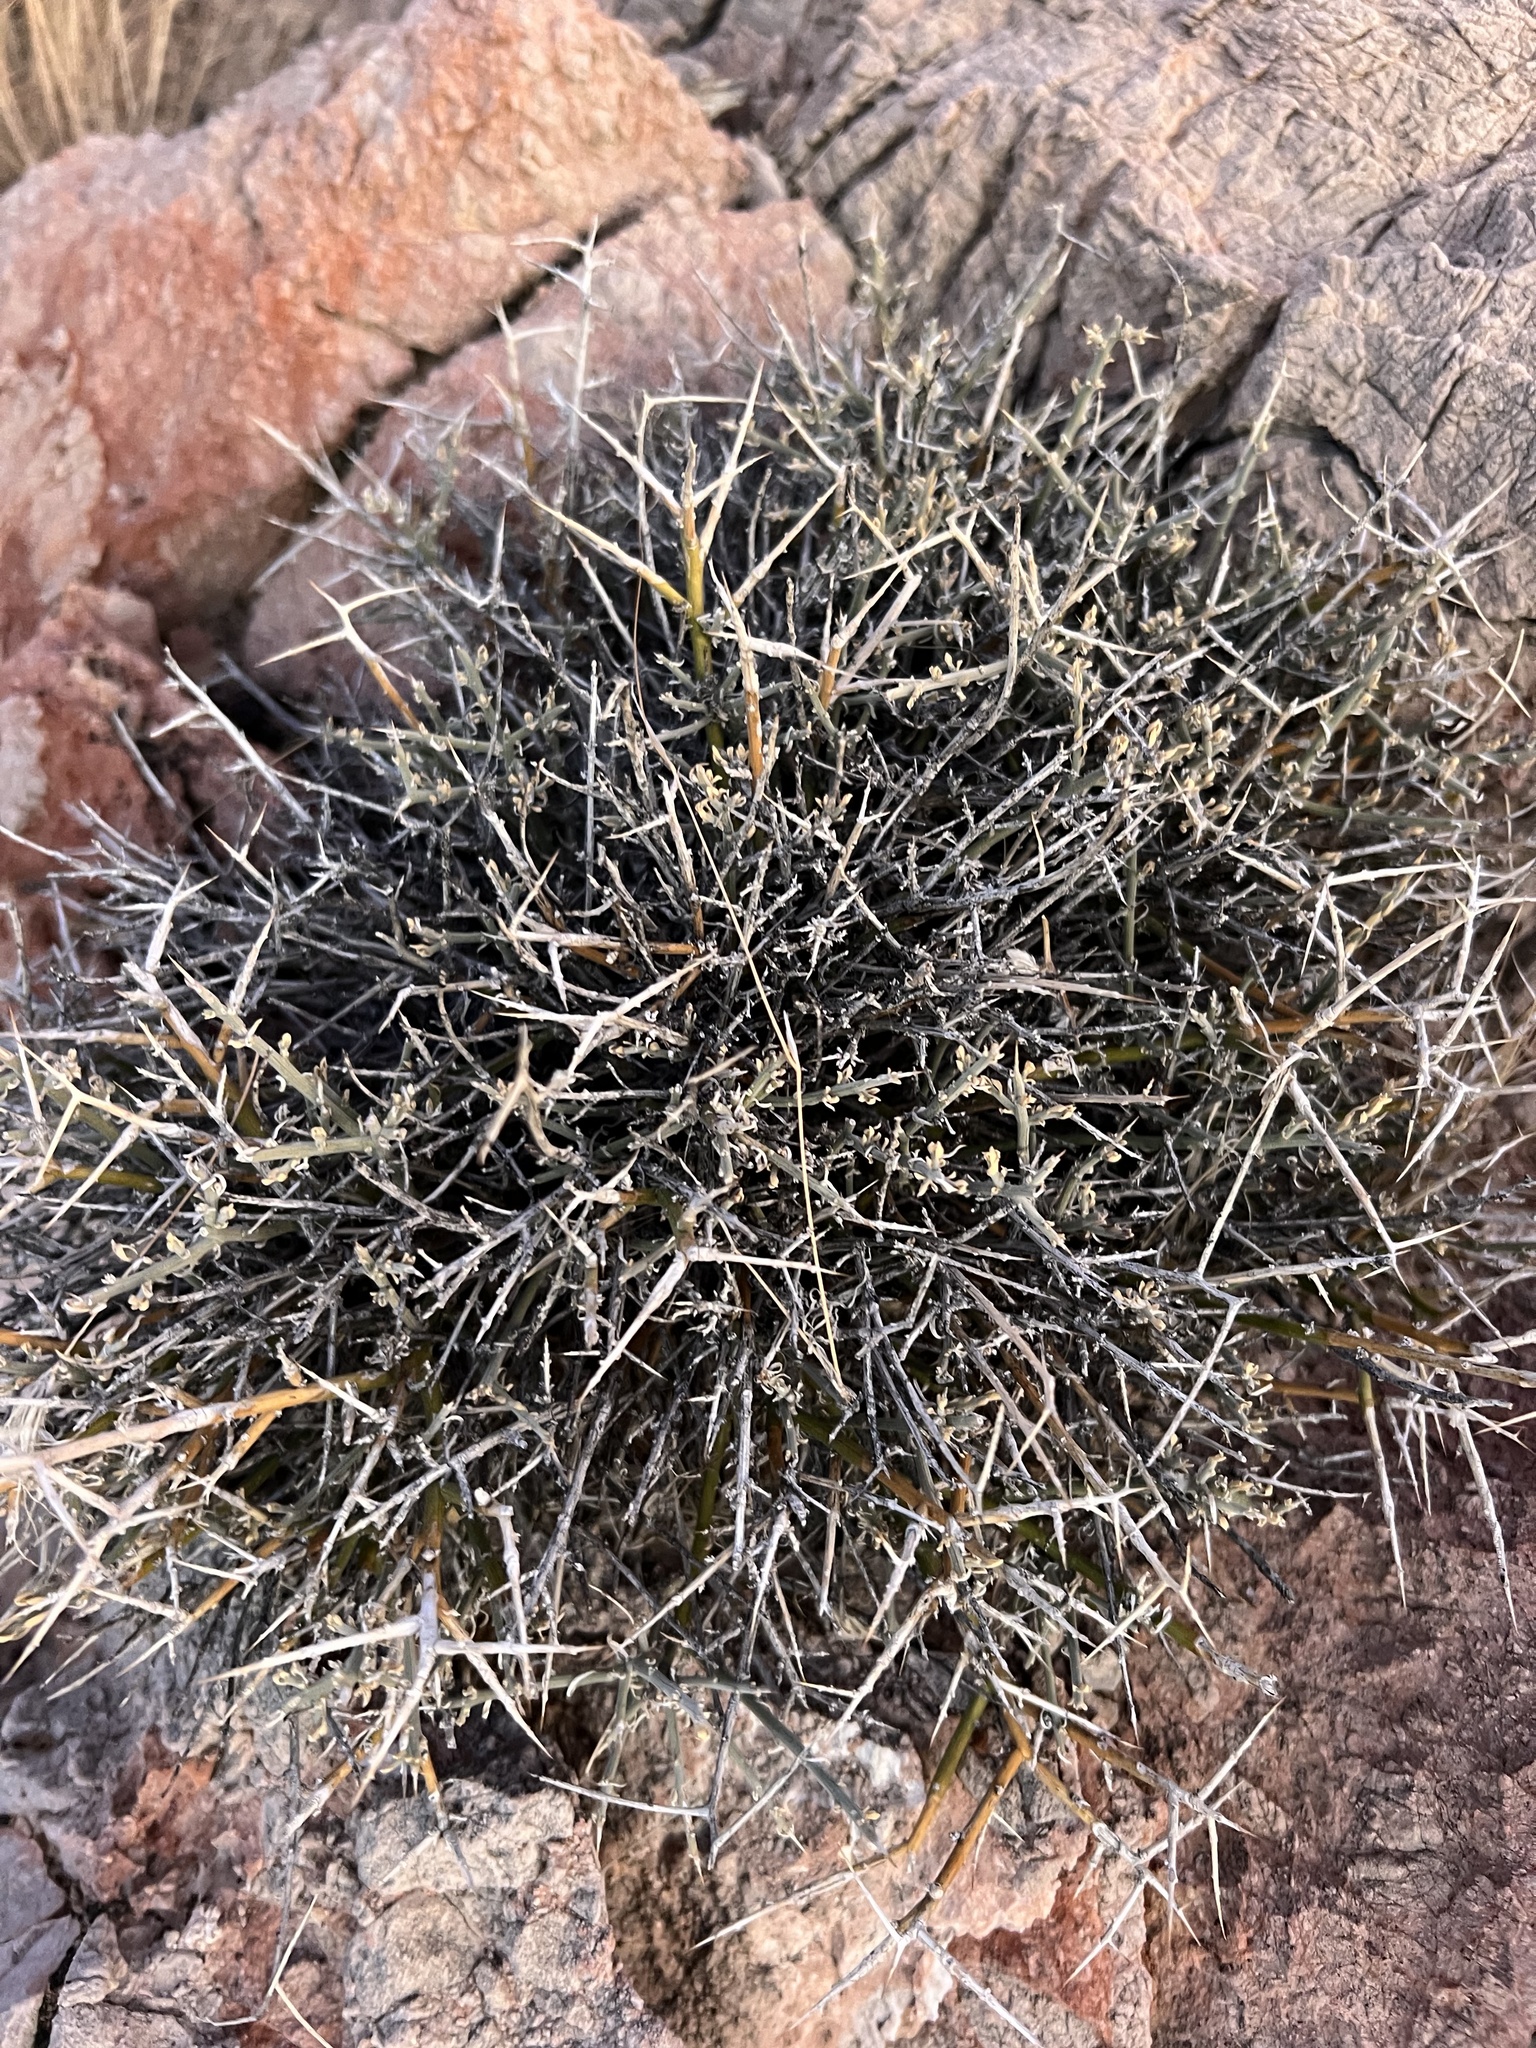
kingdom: Plantae
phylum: Tracheophyta
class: Magnoliopsida
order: Lamiales
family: Oleaceae
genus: Menodora
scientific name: Menodora spinescens
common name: Spiny menodora
